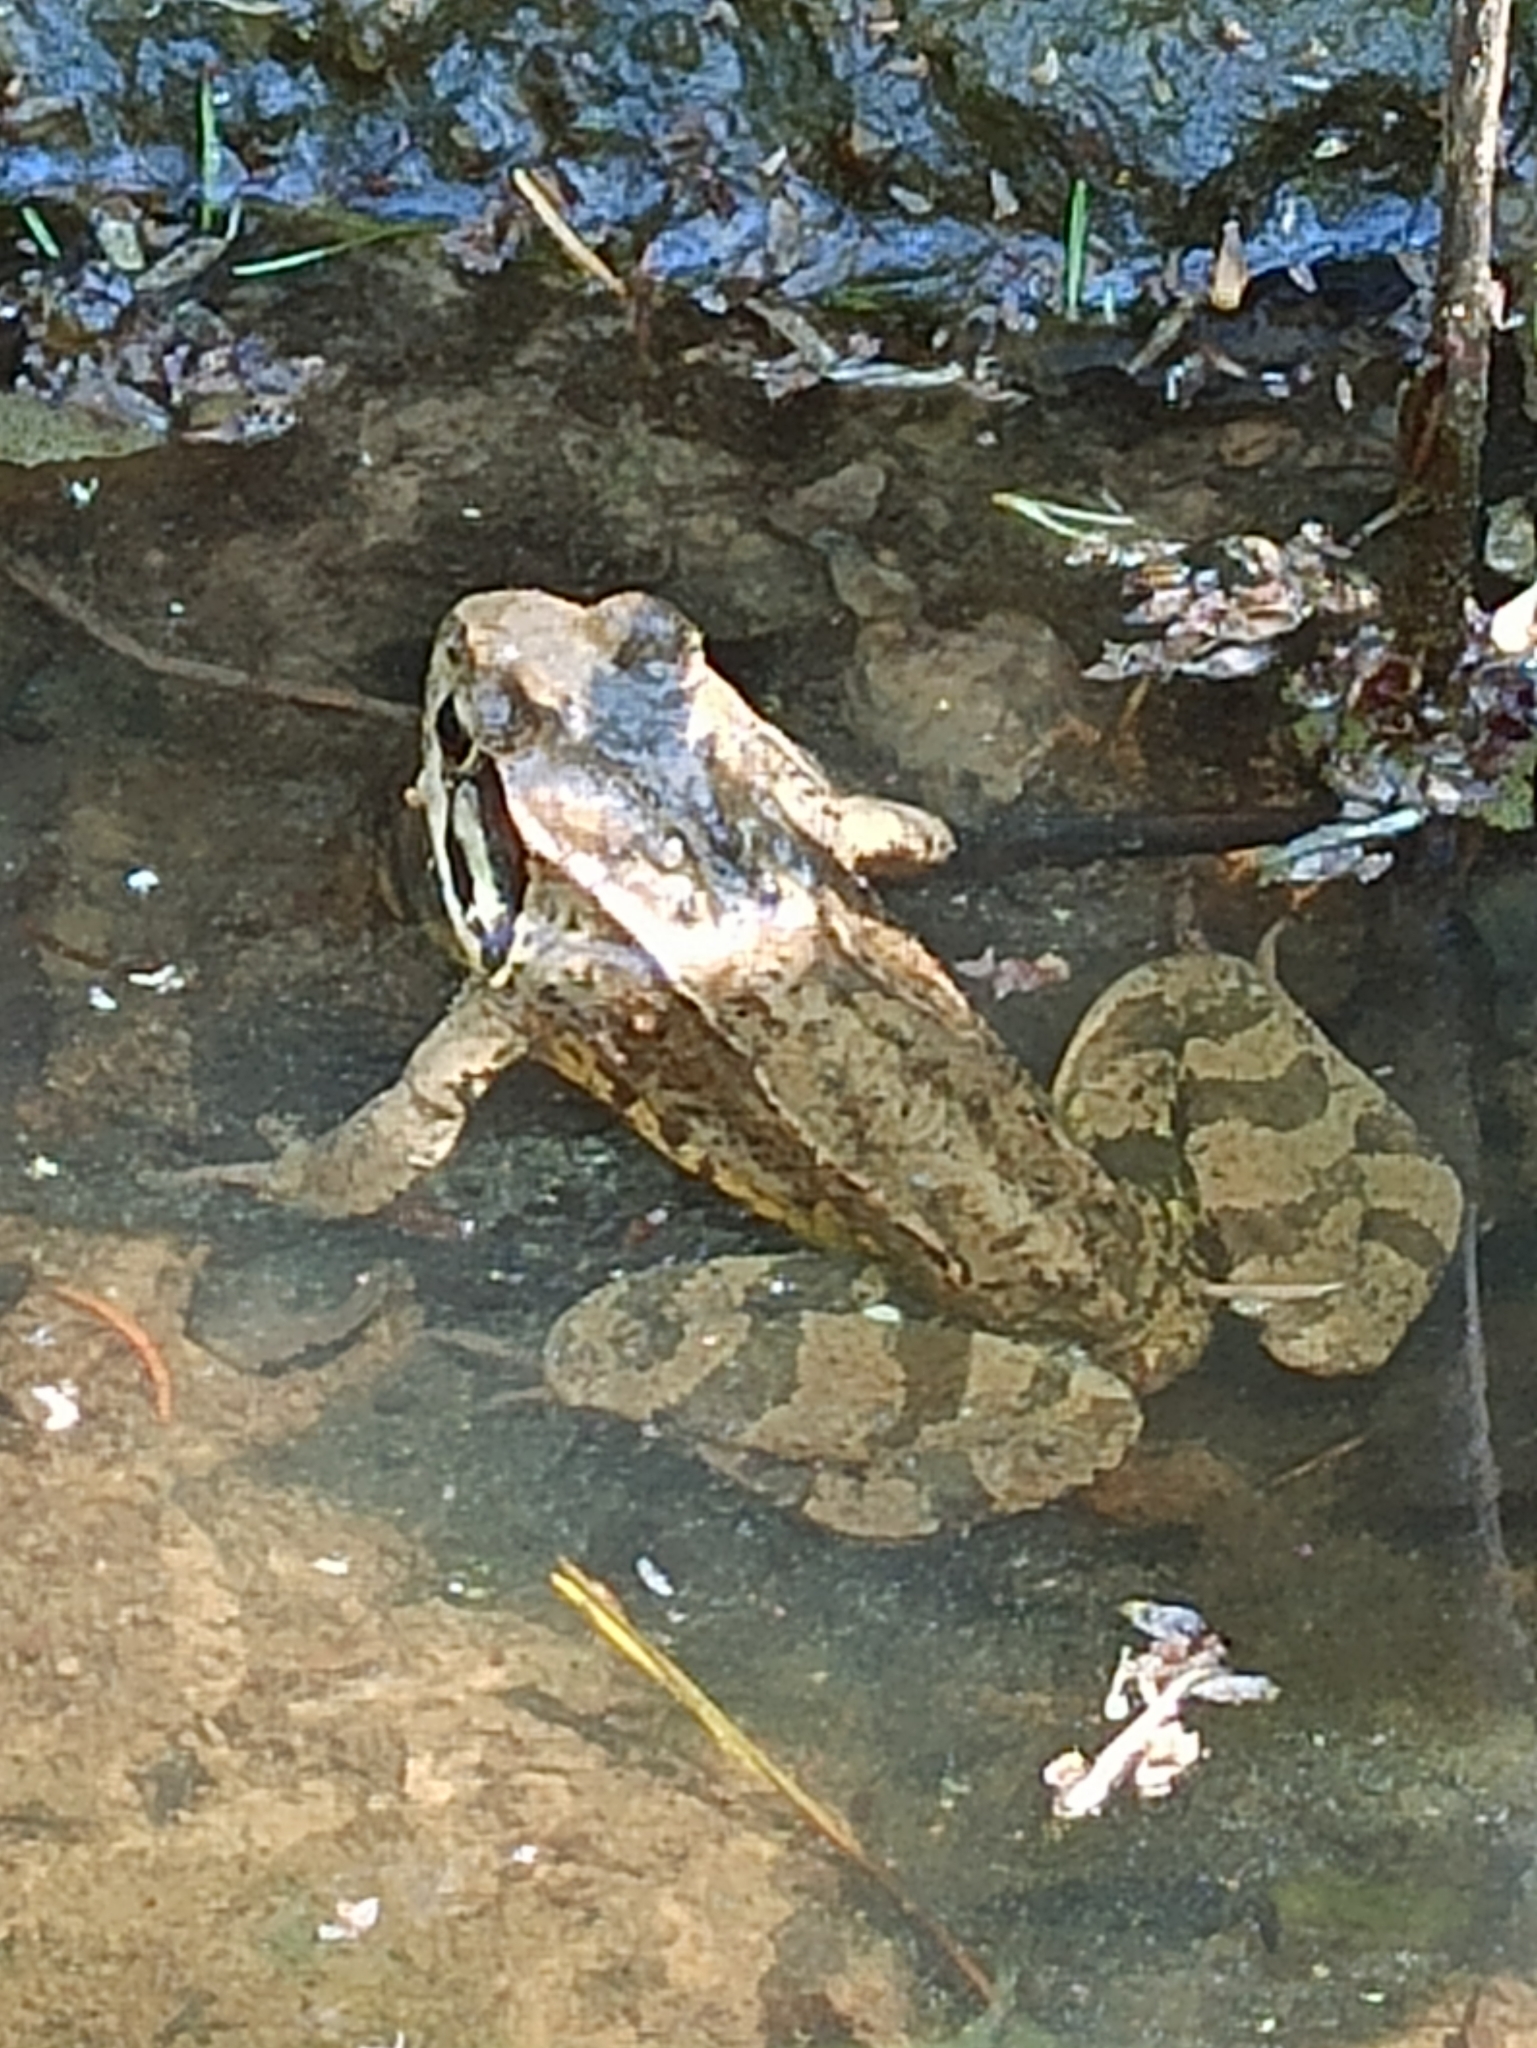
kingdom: Animalia
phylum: Chordata
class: Amphibia
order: Anura
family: Ranidae
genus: Rana
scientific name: Rana temporaria
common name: Common frog
